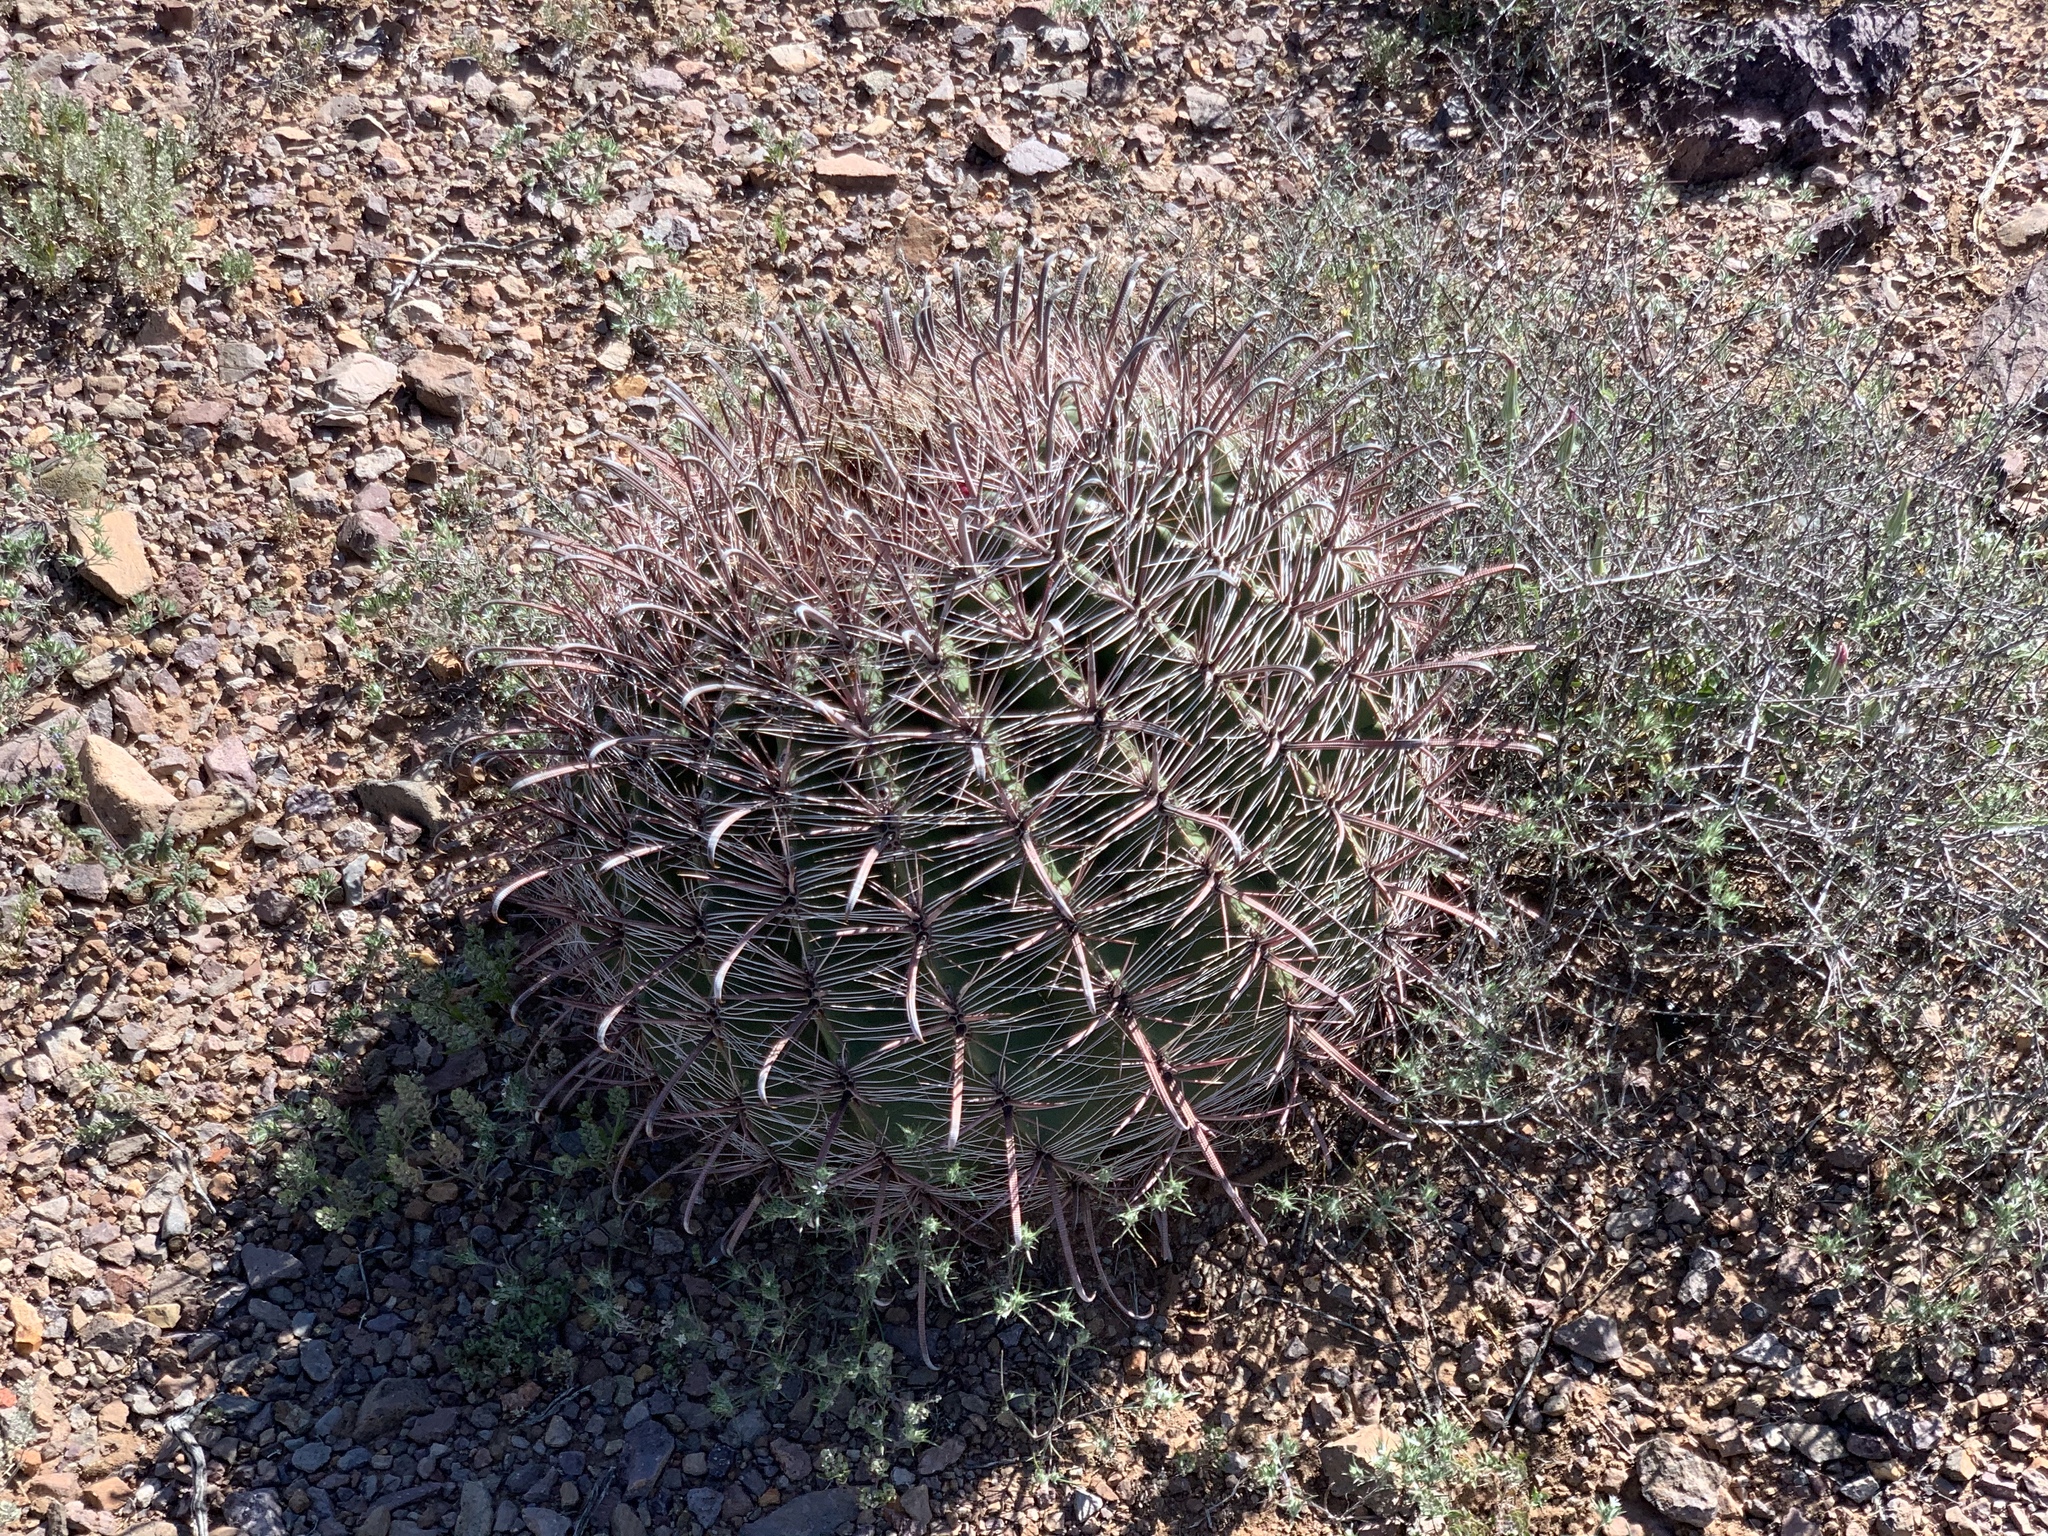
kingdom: Plantae
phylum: Tracheophyta
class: Magnoliopsida
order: Caryophyllales
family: Cactaceae
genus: Ferocactus
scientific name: Ferocactus wislizeni
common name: Candy barrel cactus
